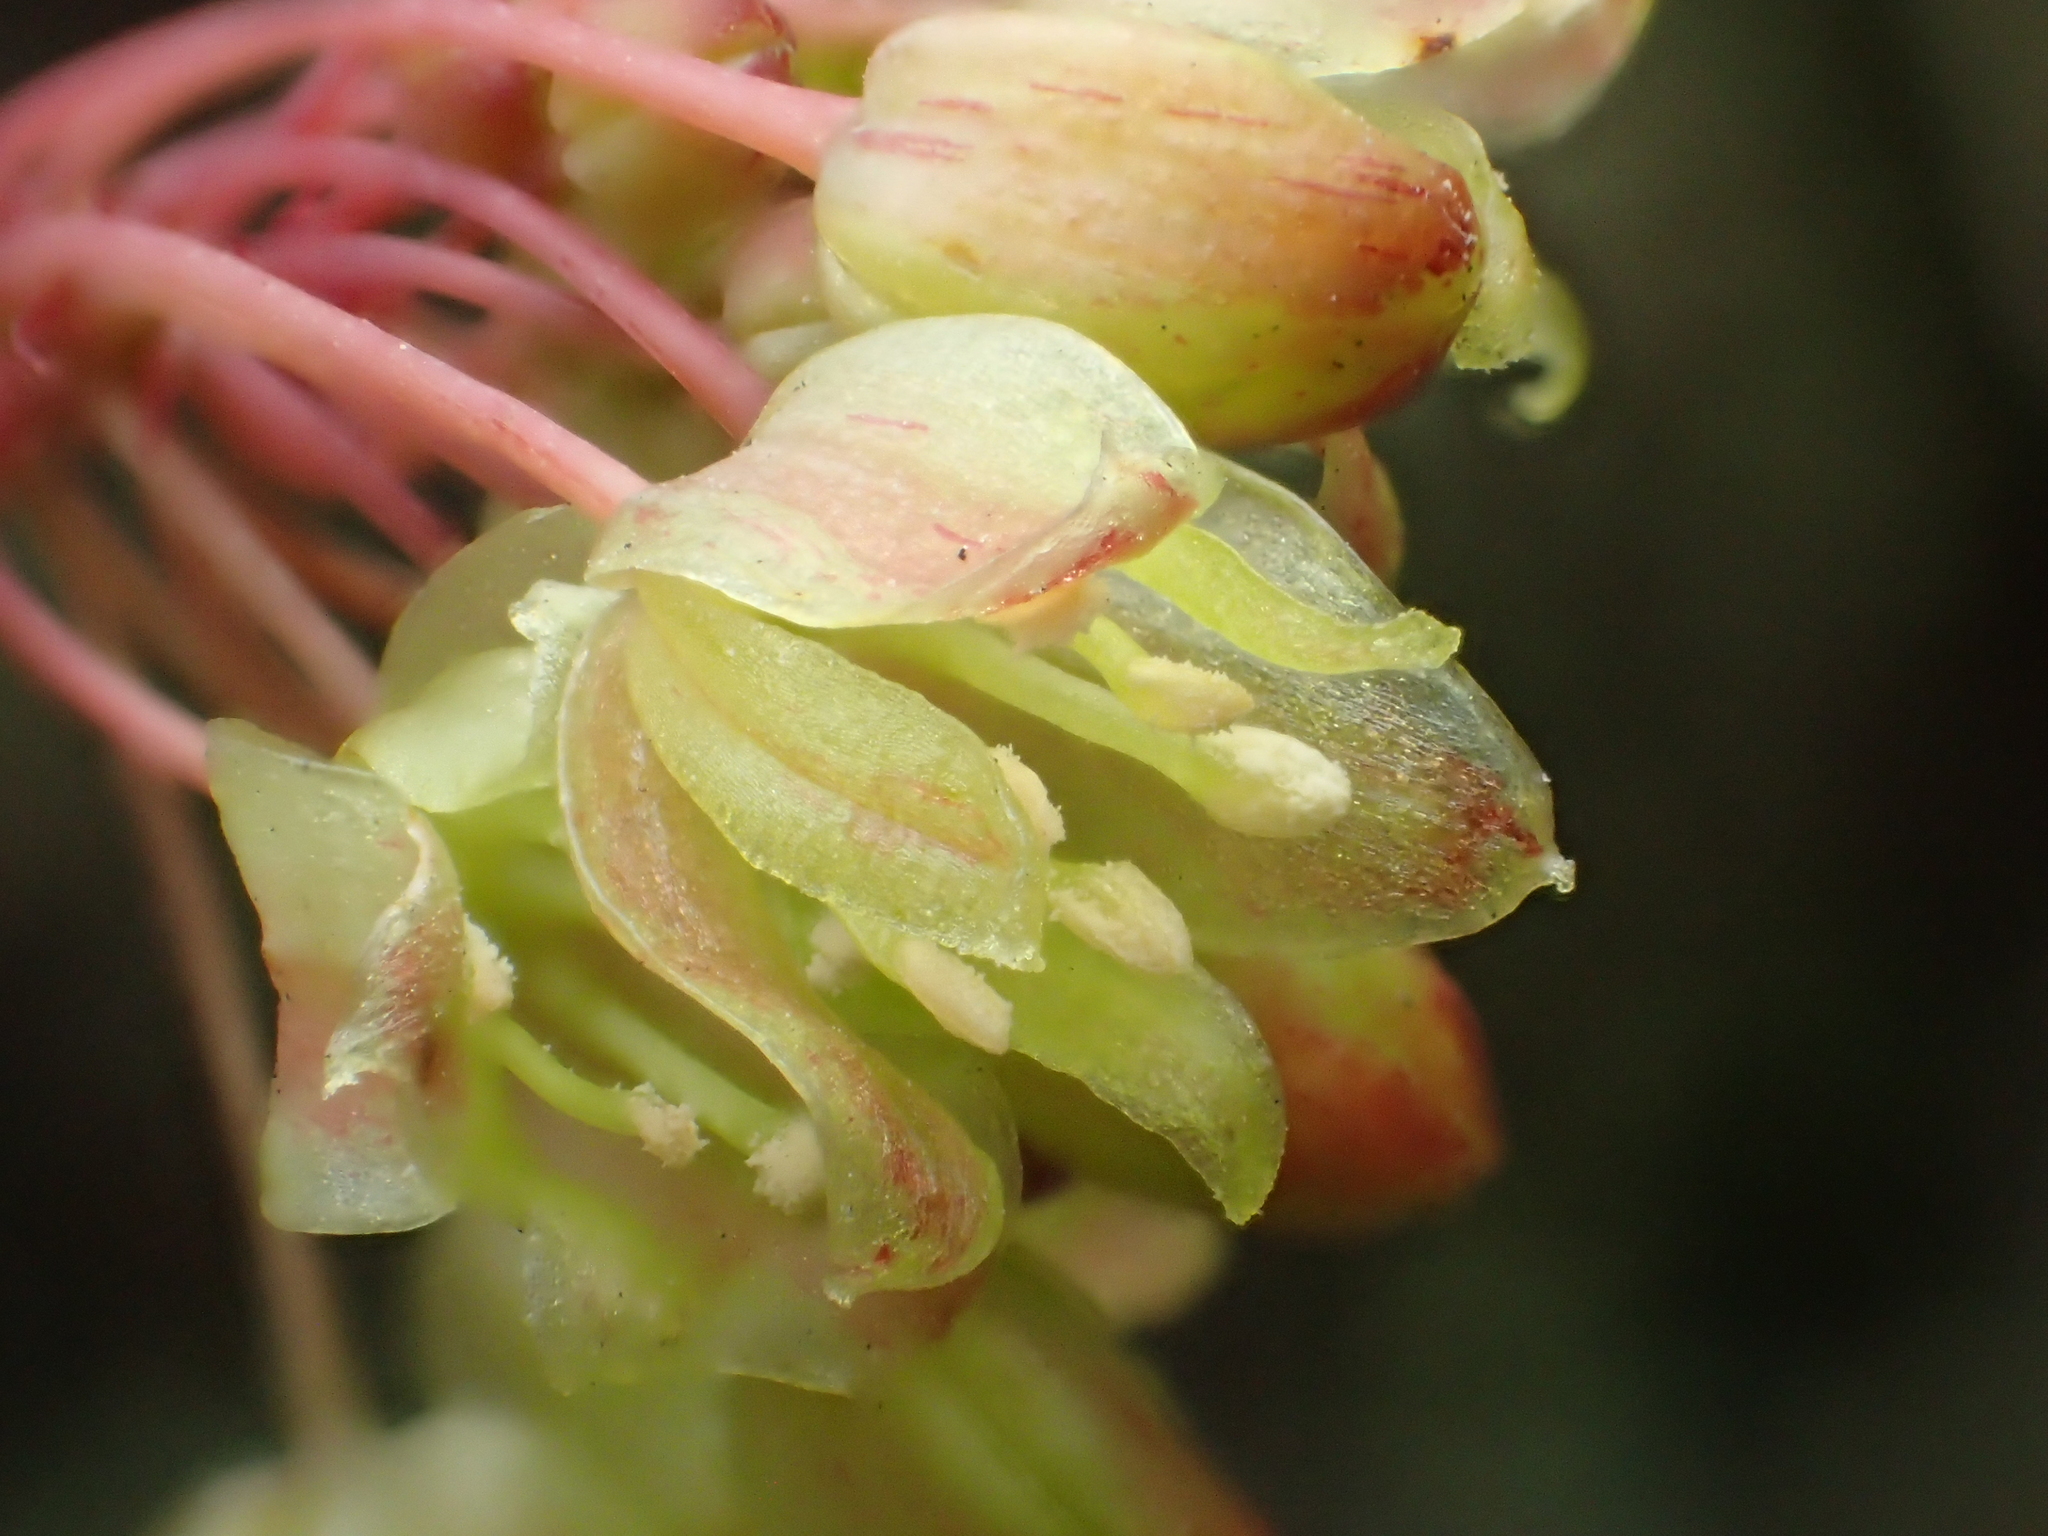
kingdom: Plantae
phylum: Tracheophyta
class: Liliopsida
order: Liliales
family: Smilacaceae
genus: Smilax
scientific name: Smilax elongatoumbellata
